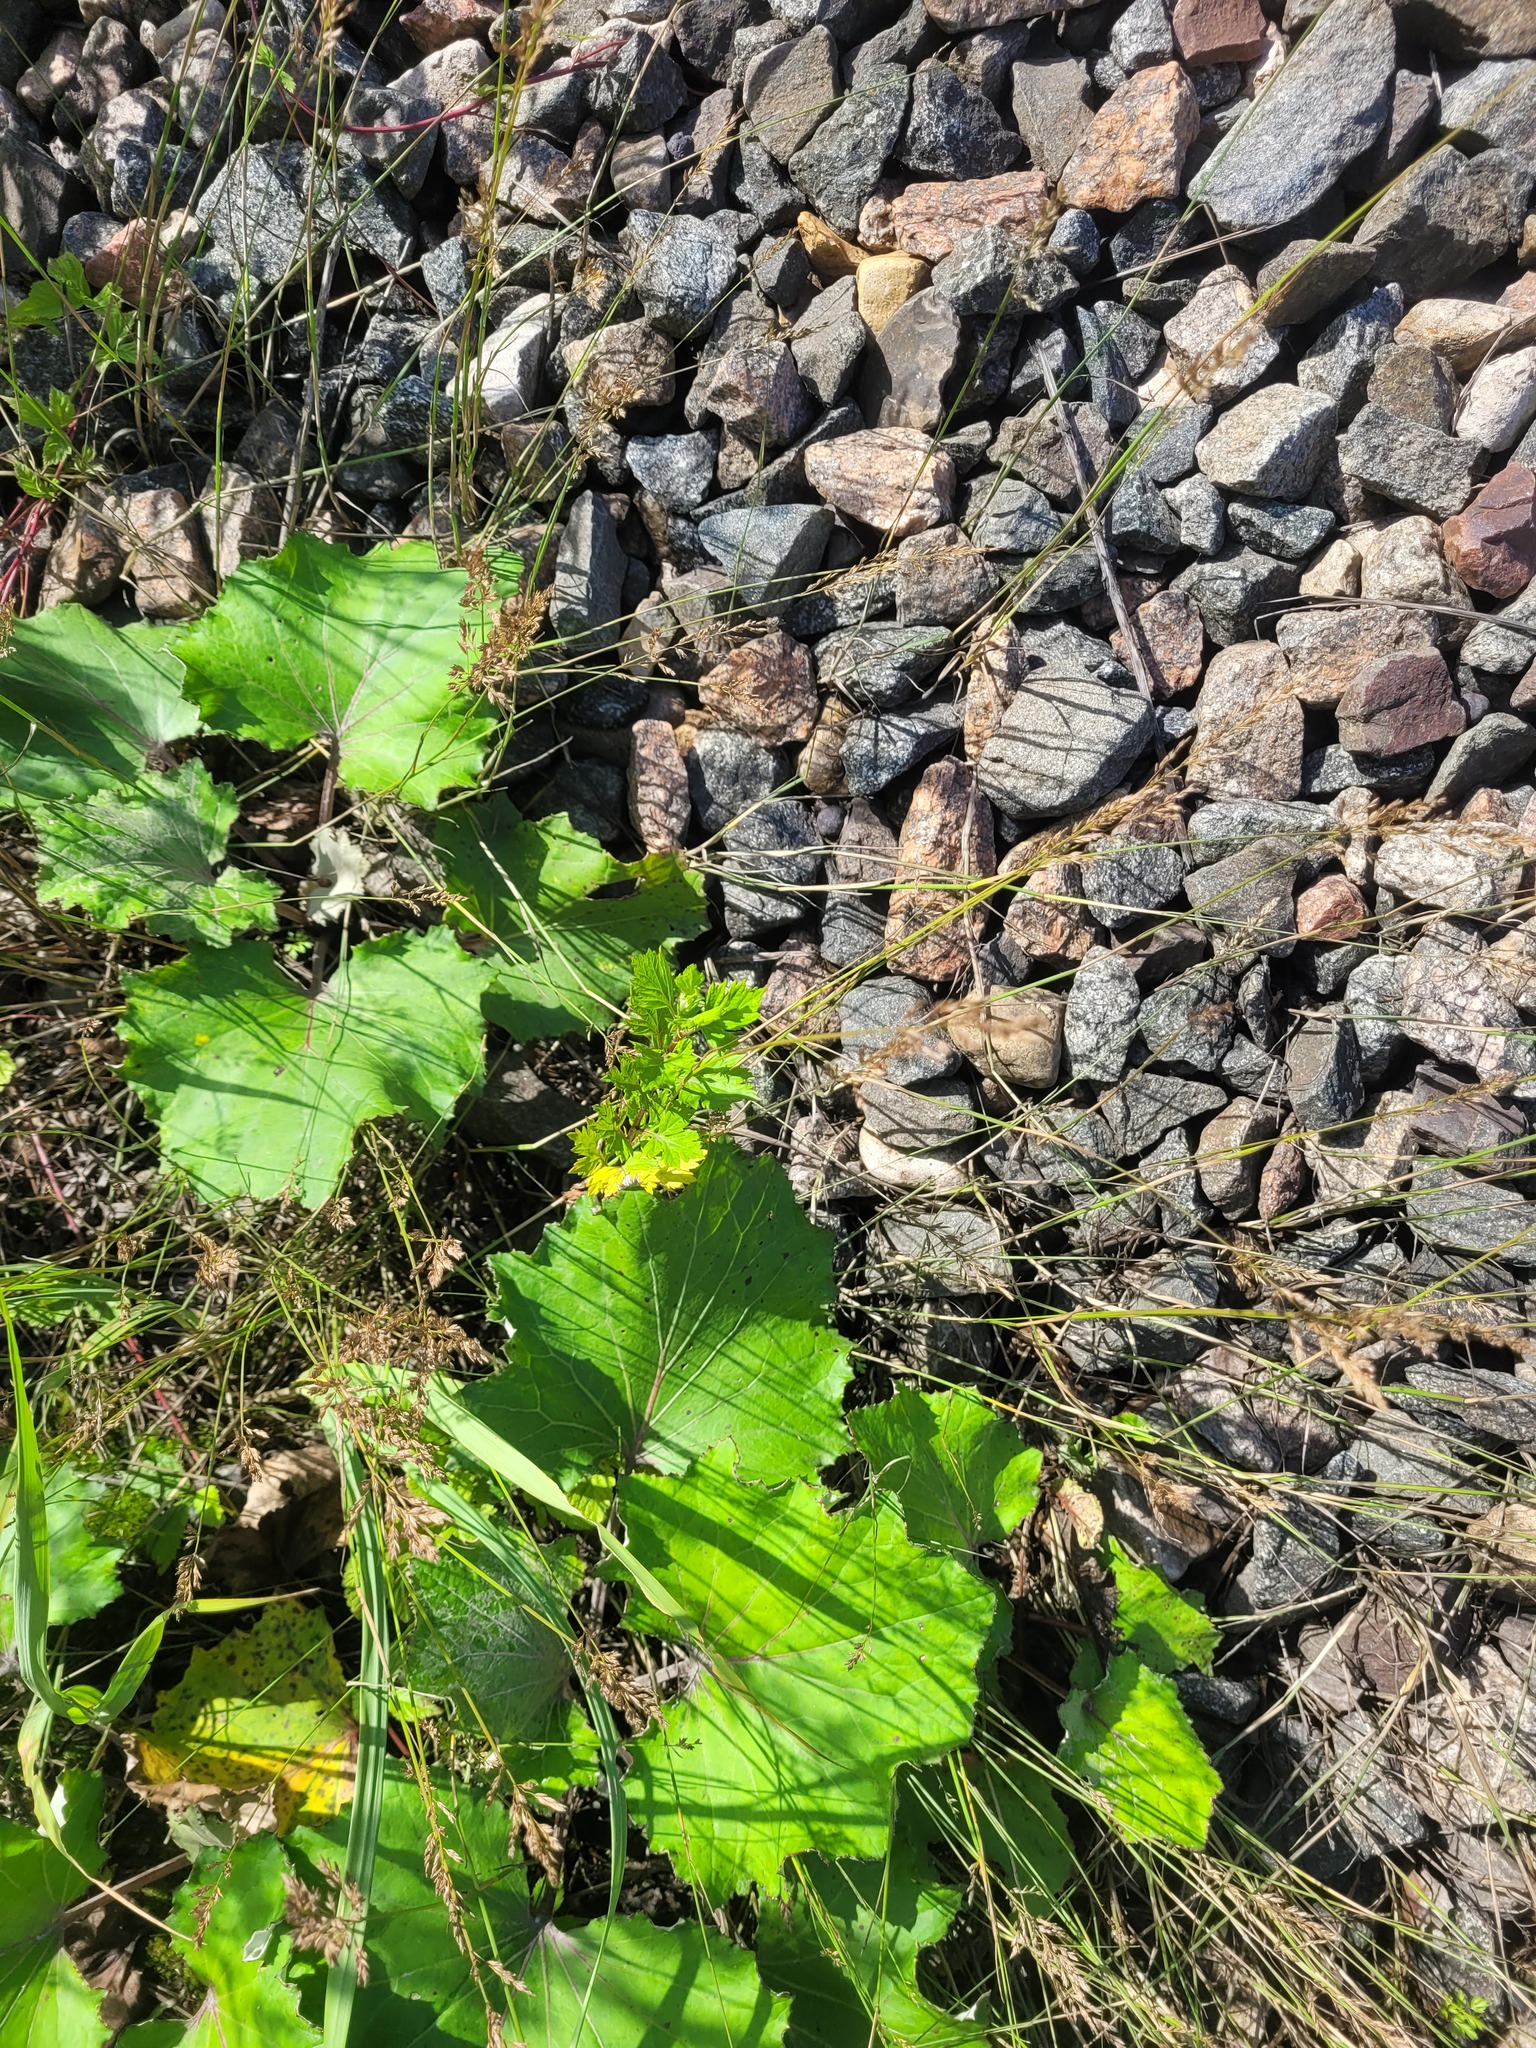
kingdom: Plantae
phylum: Tracheophyta
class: Magnoliopsida
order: Asterales
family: Asteraceae
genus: Artemisia
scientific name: Artemisia vulgaris
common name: Mugwort
